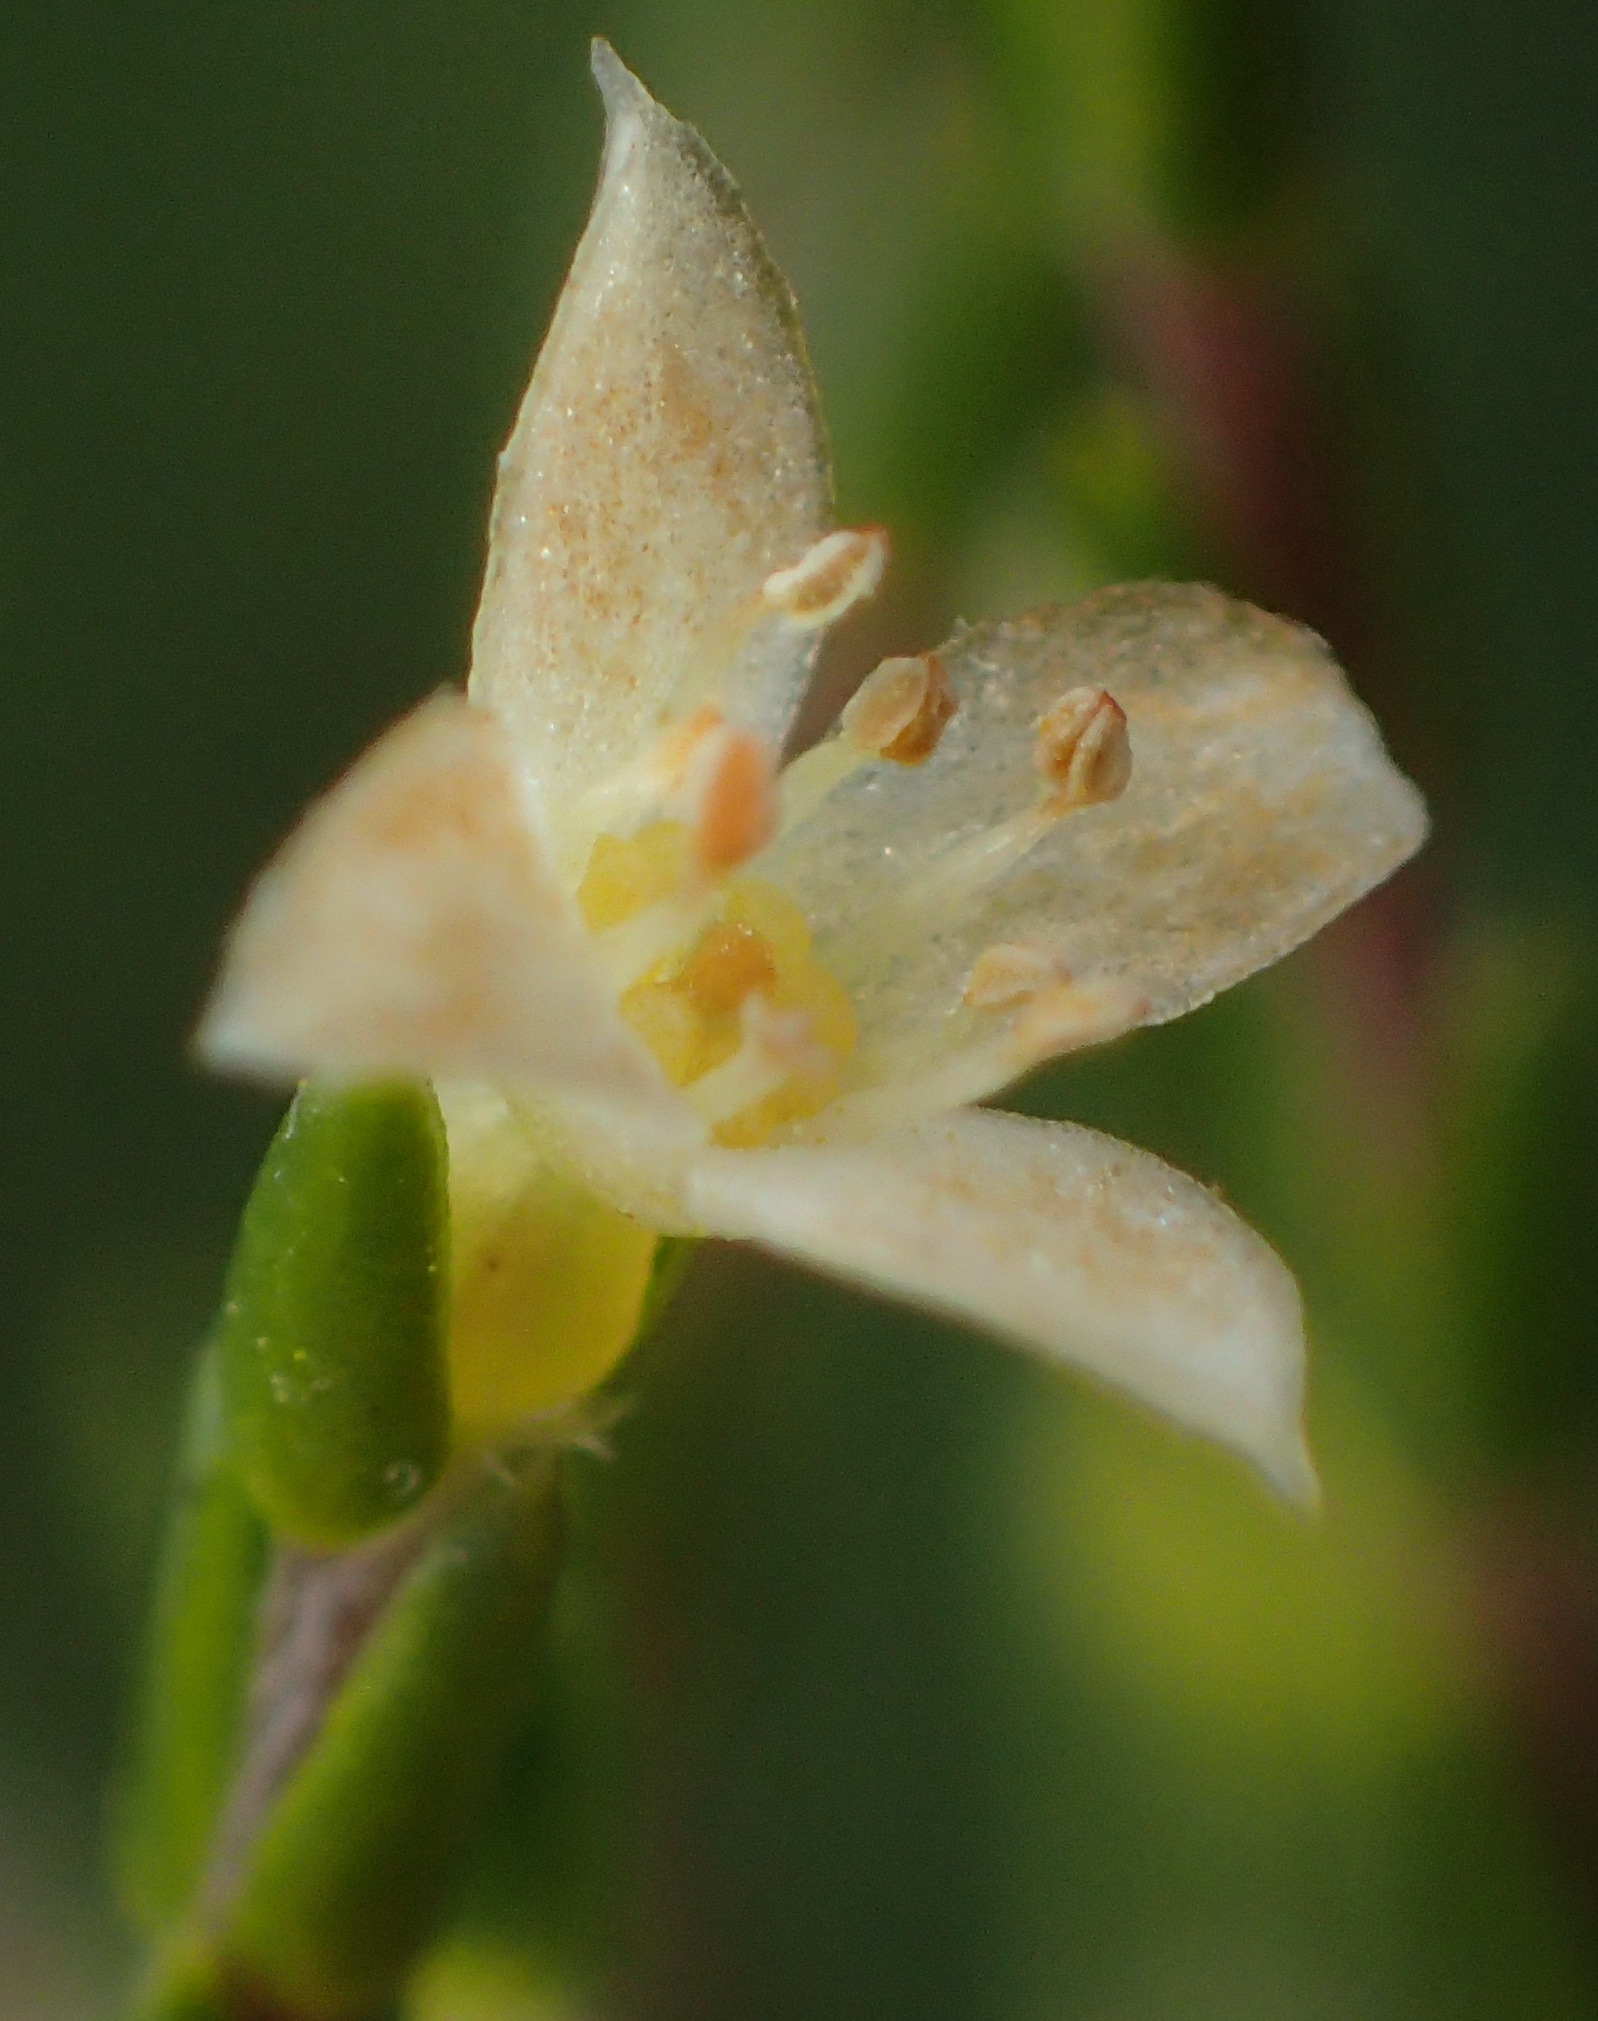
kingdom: Plantae
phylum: Tracheophyta
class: Magnoliopsida
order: Malvales
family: Thymelaeaceae
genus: Lachnaea
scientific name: Lachnaea axillaris
